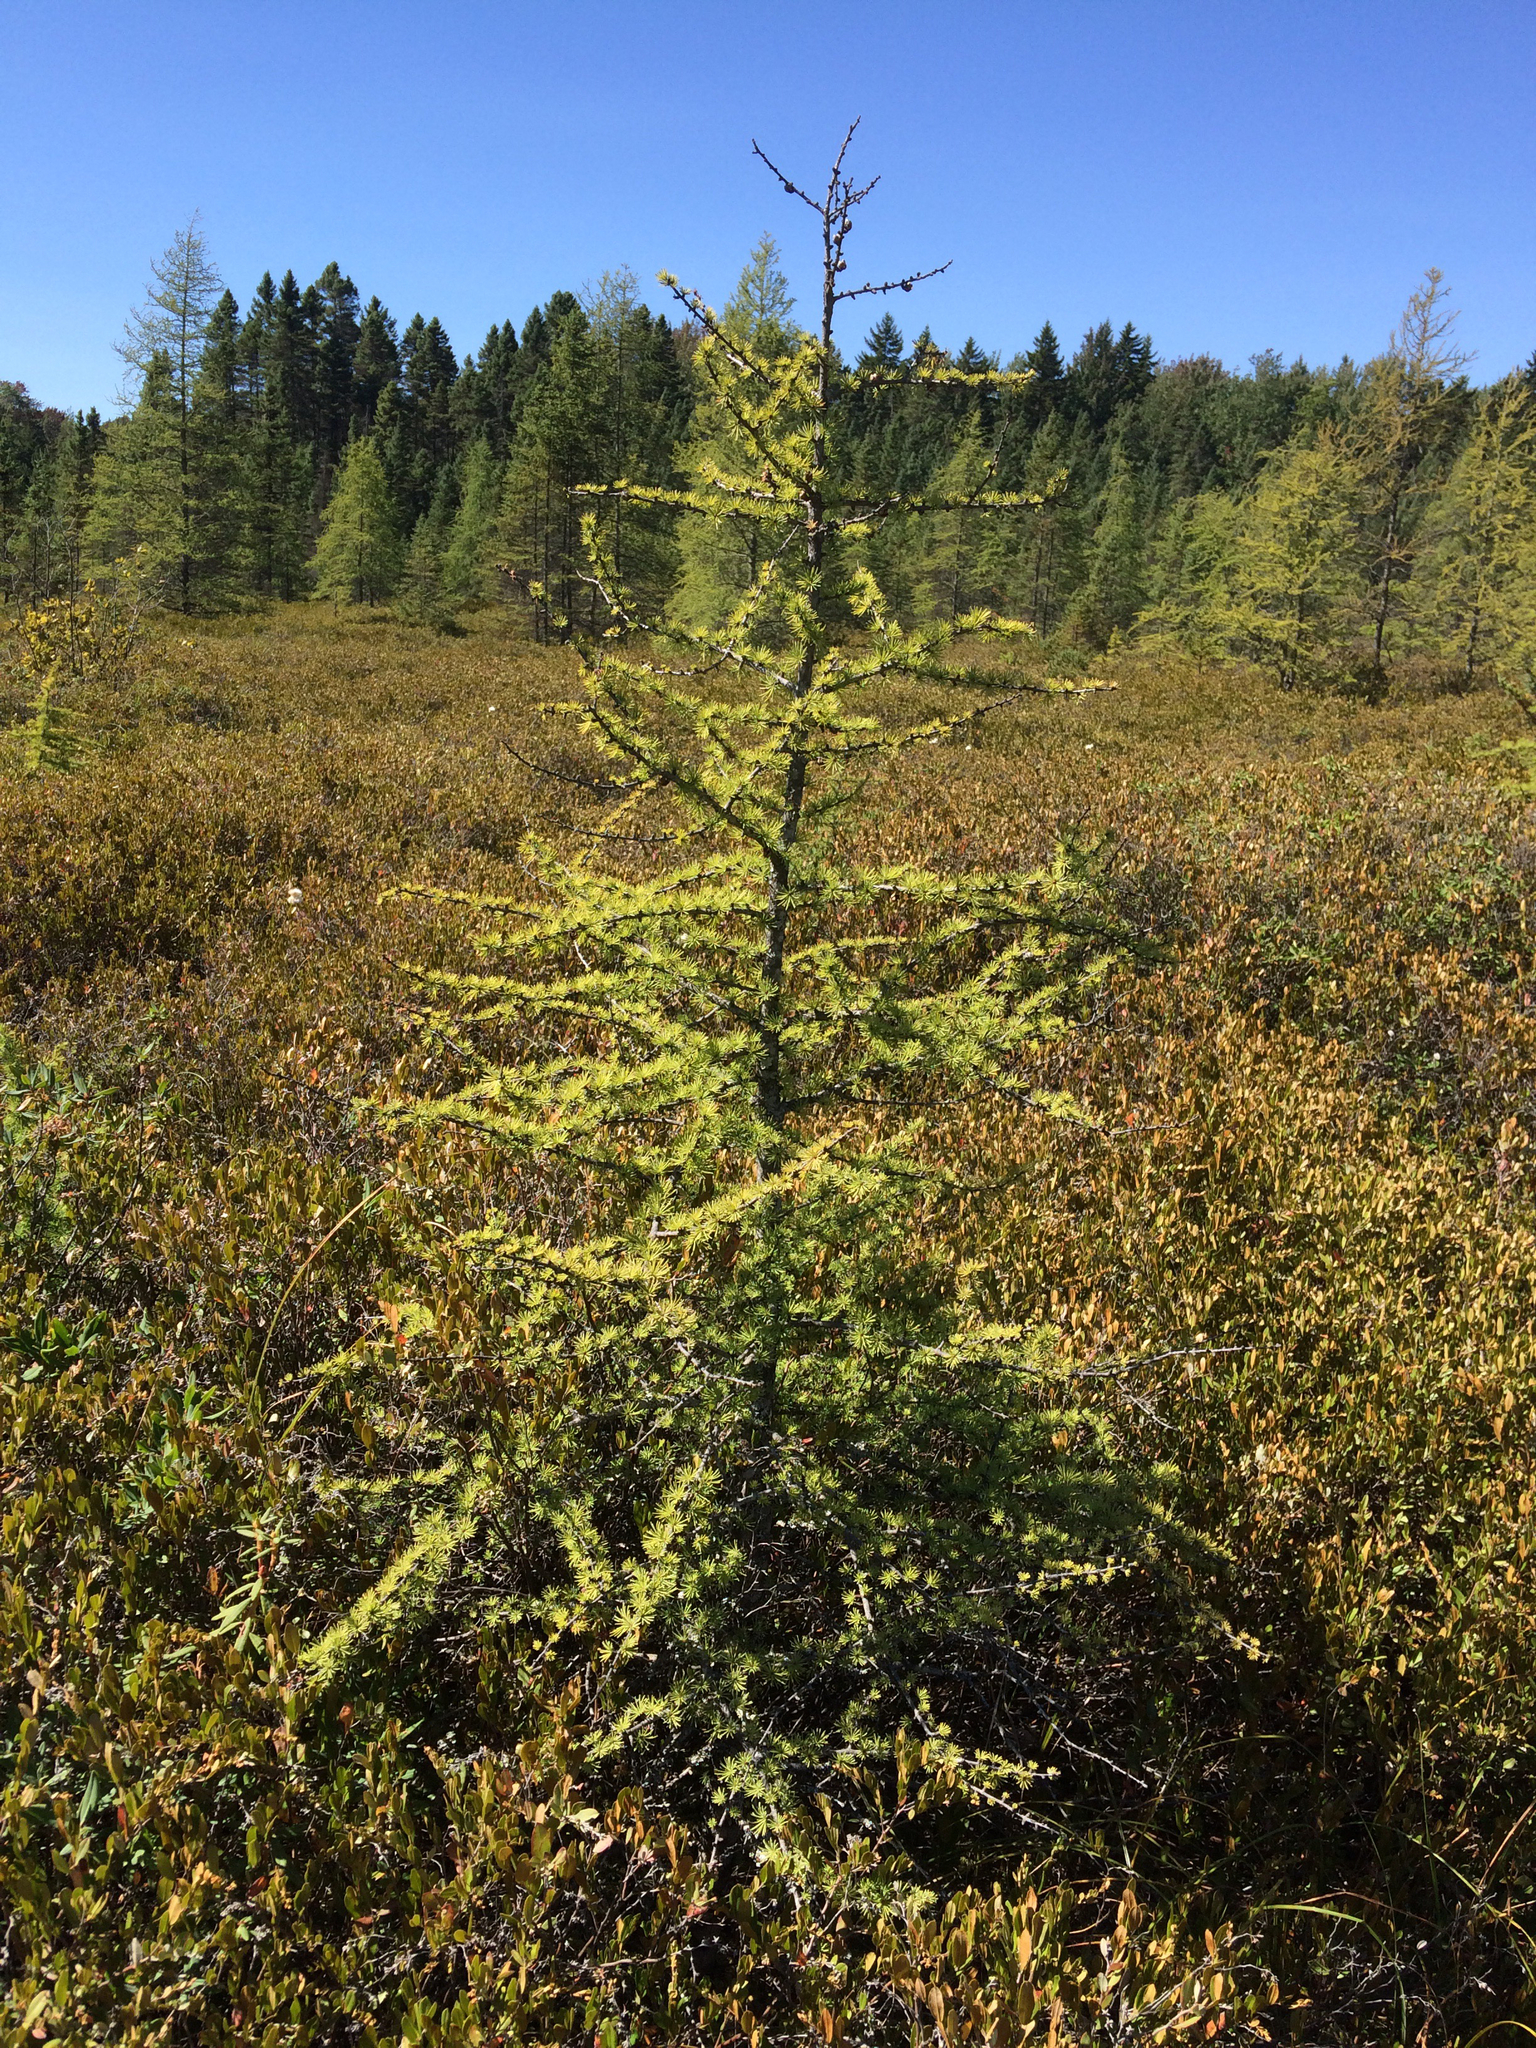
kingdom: Plantae
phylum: Tracheophyta
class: Pinopsida
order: Pinales
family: Pinaceae
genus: Larix
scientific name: Larix laricina
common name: American larch
